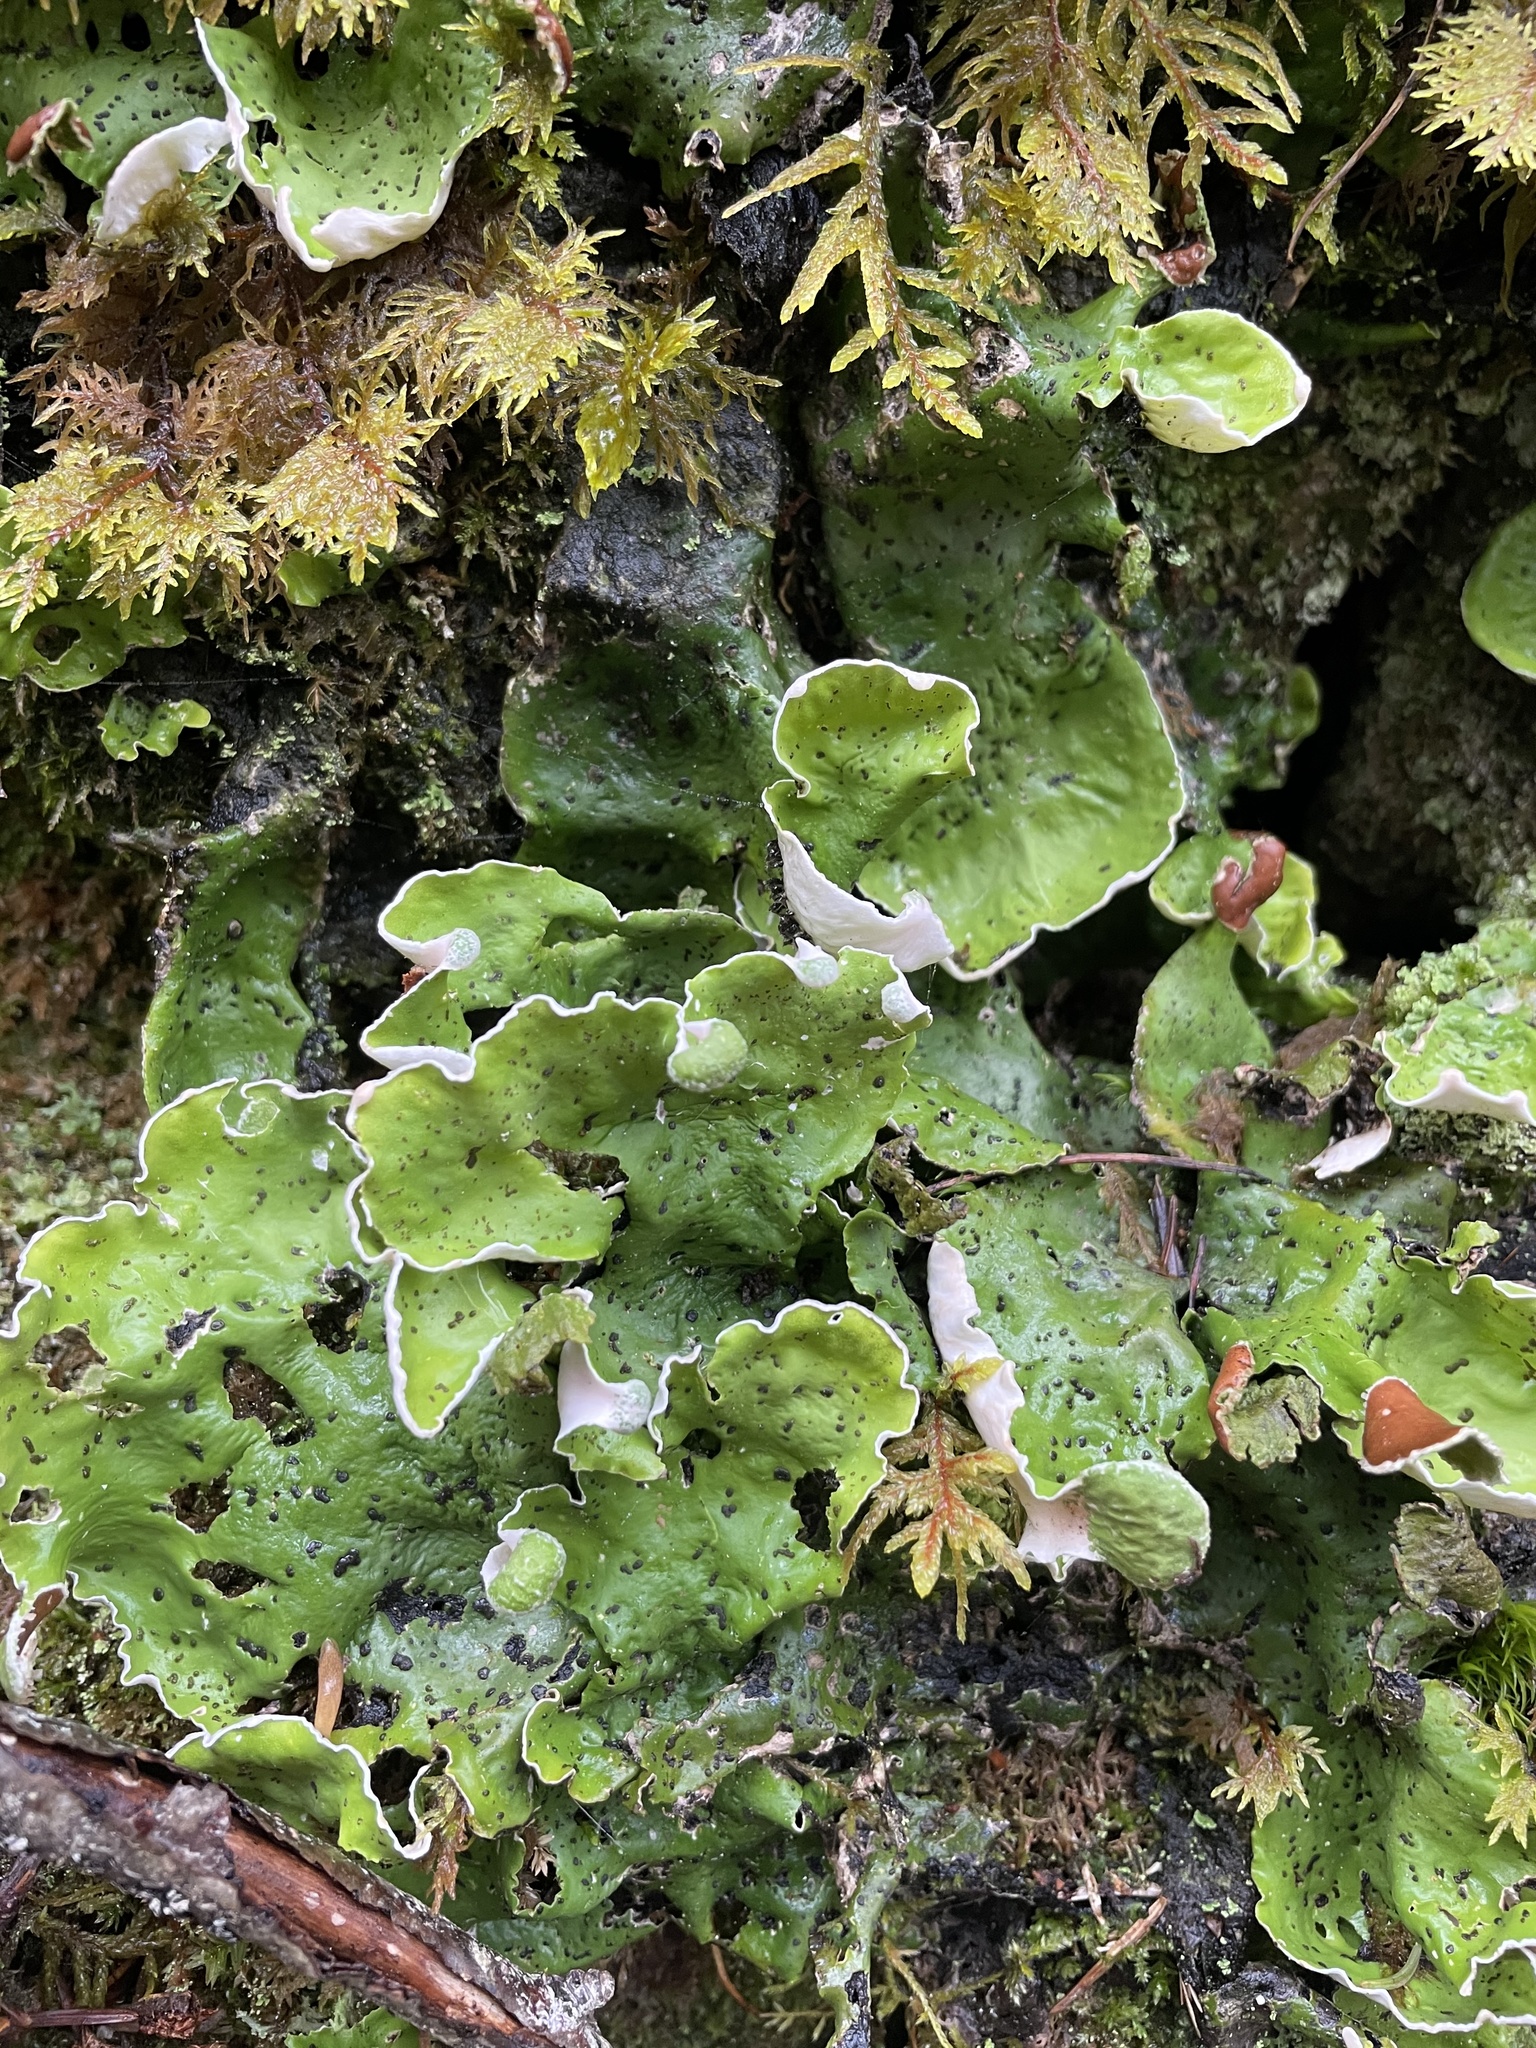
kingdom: Fungi
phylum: Ascomycota
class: Lecanoromycetes
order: Peltigerales
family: Peltigeraceae
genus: Peltigera
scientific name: Peltigera aphthosa
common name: Common freckle pelt lichen
